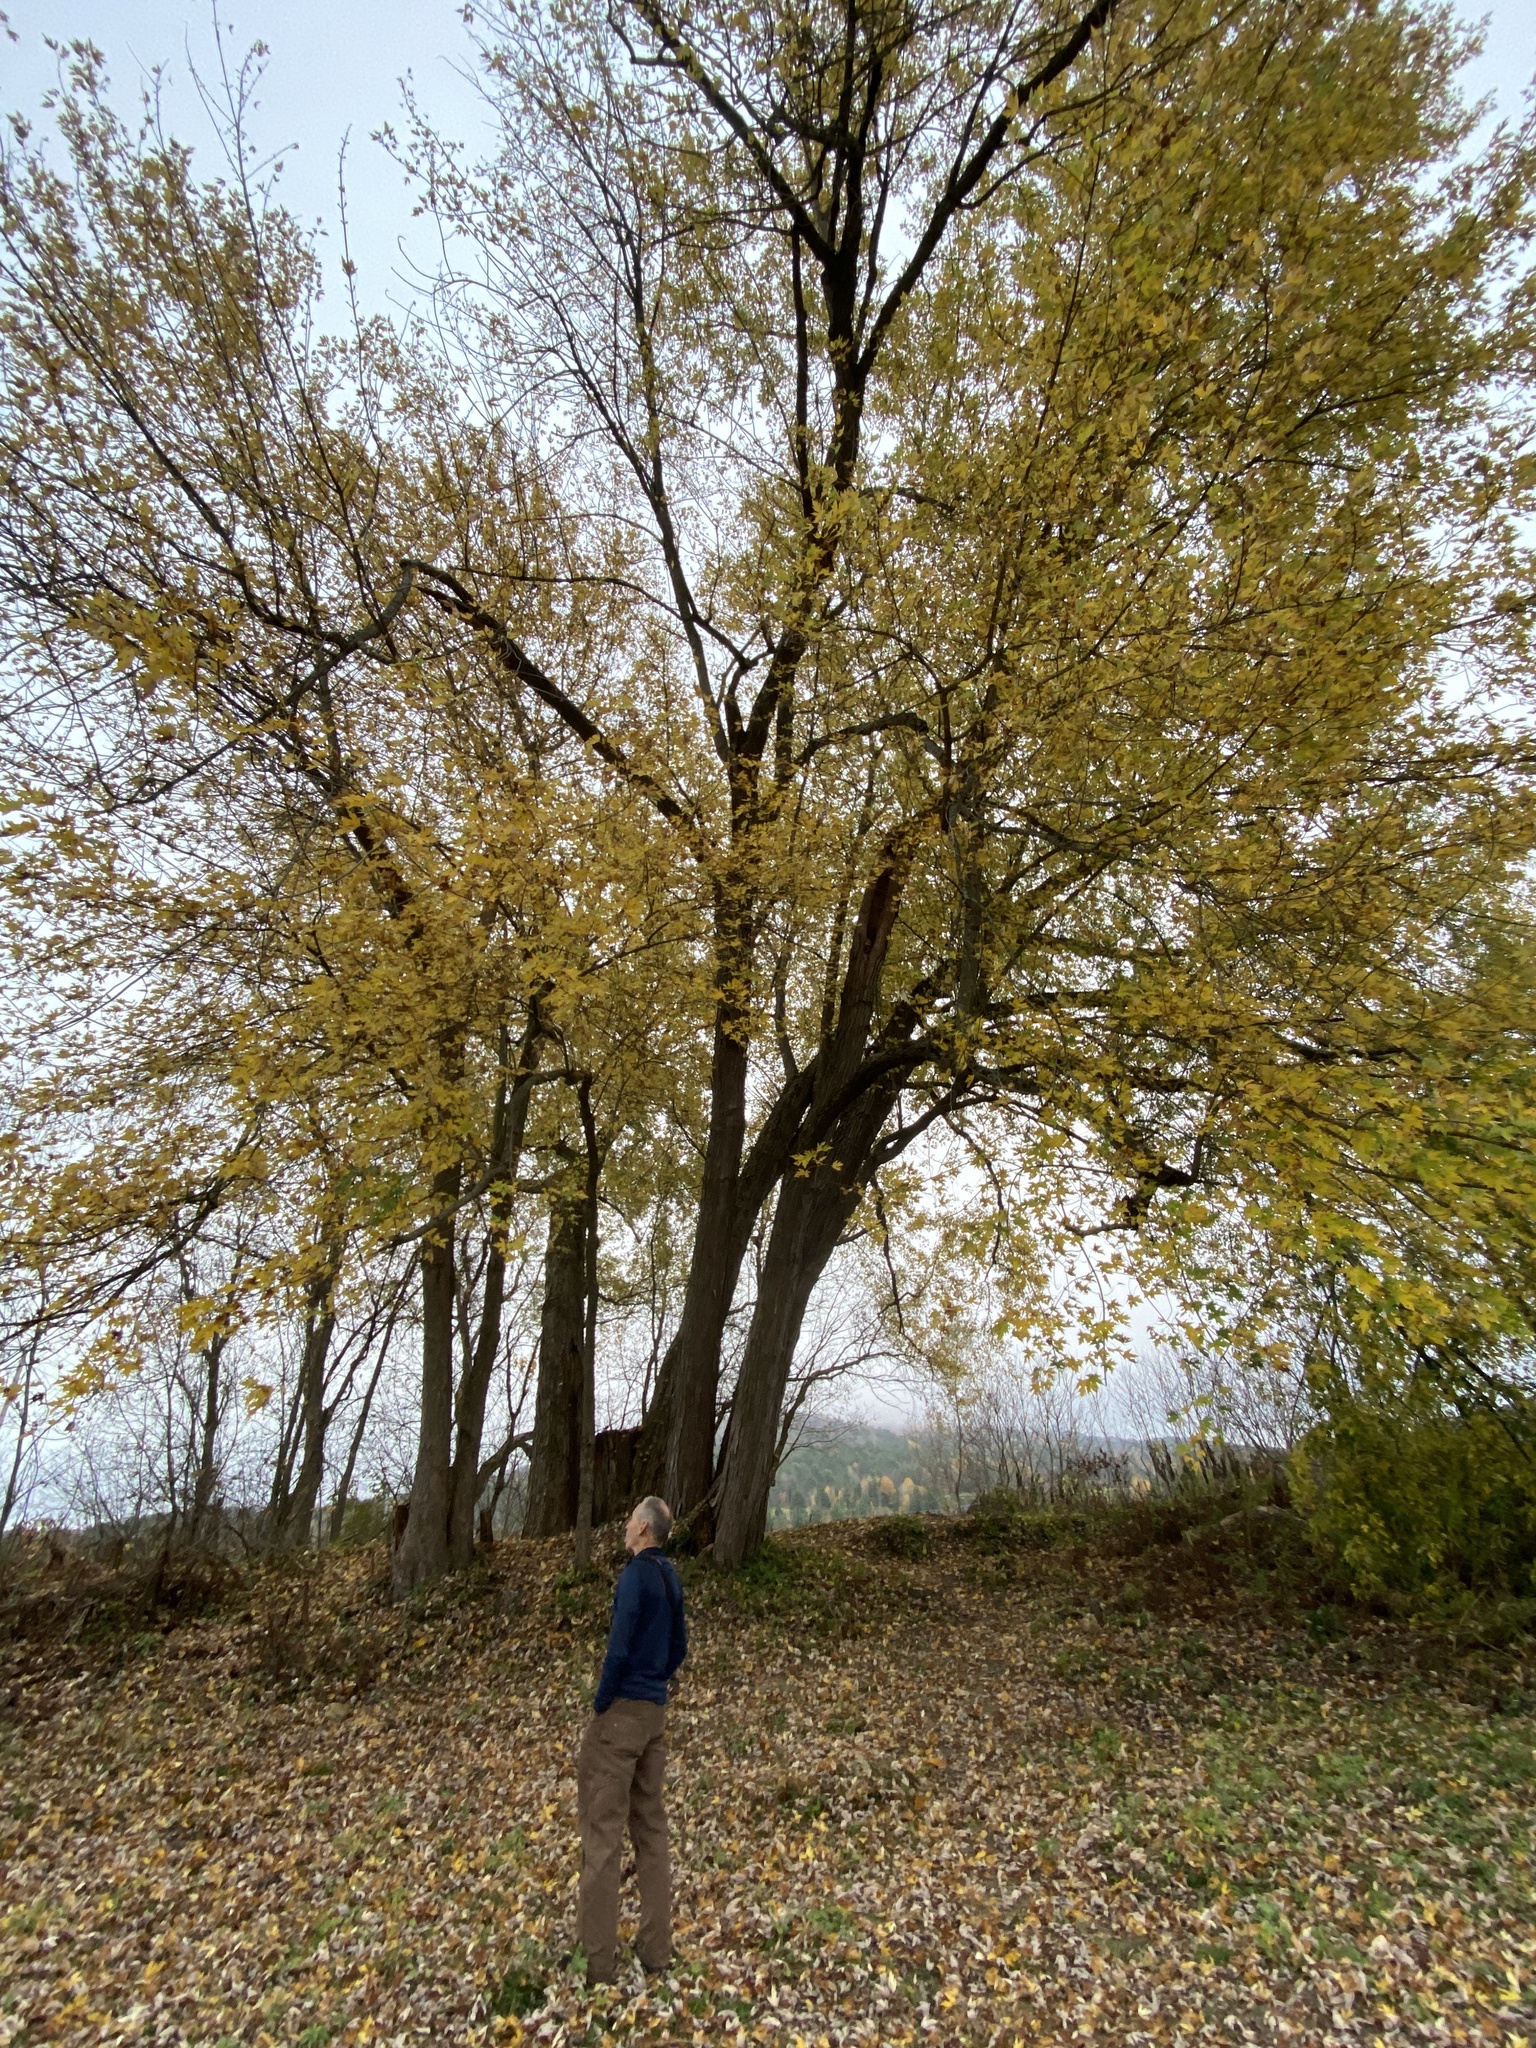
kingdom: Plantae
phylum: Tracheophyta
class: Magnoliopsida
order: Sapindales
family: Sapindaceae
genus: Acer
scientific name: Acer saccharinum
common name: Silver maple
